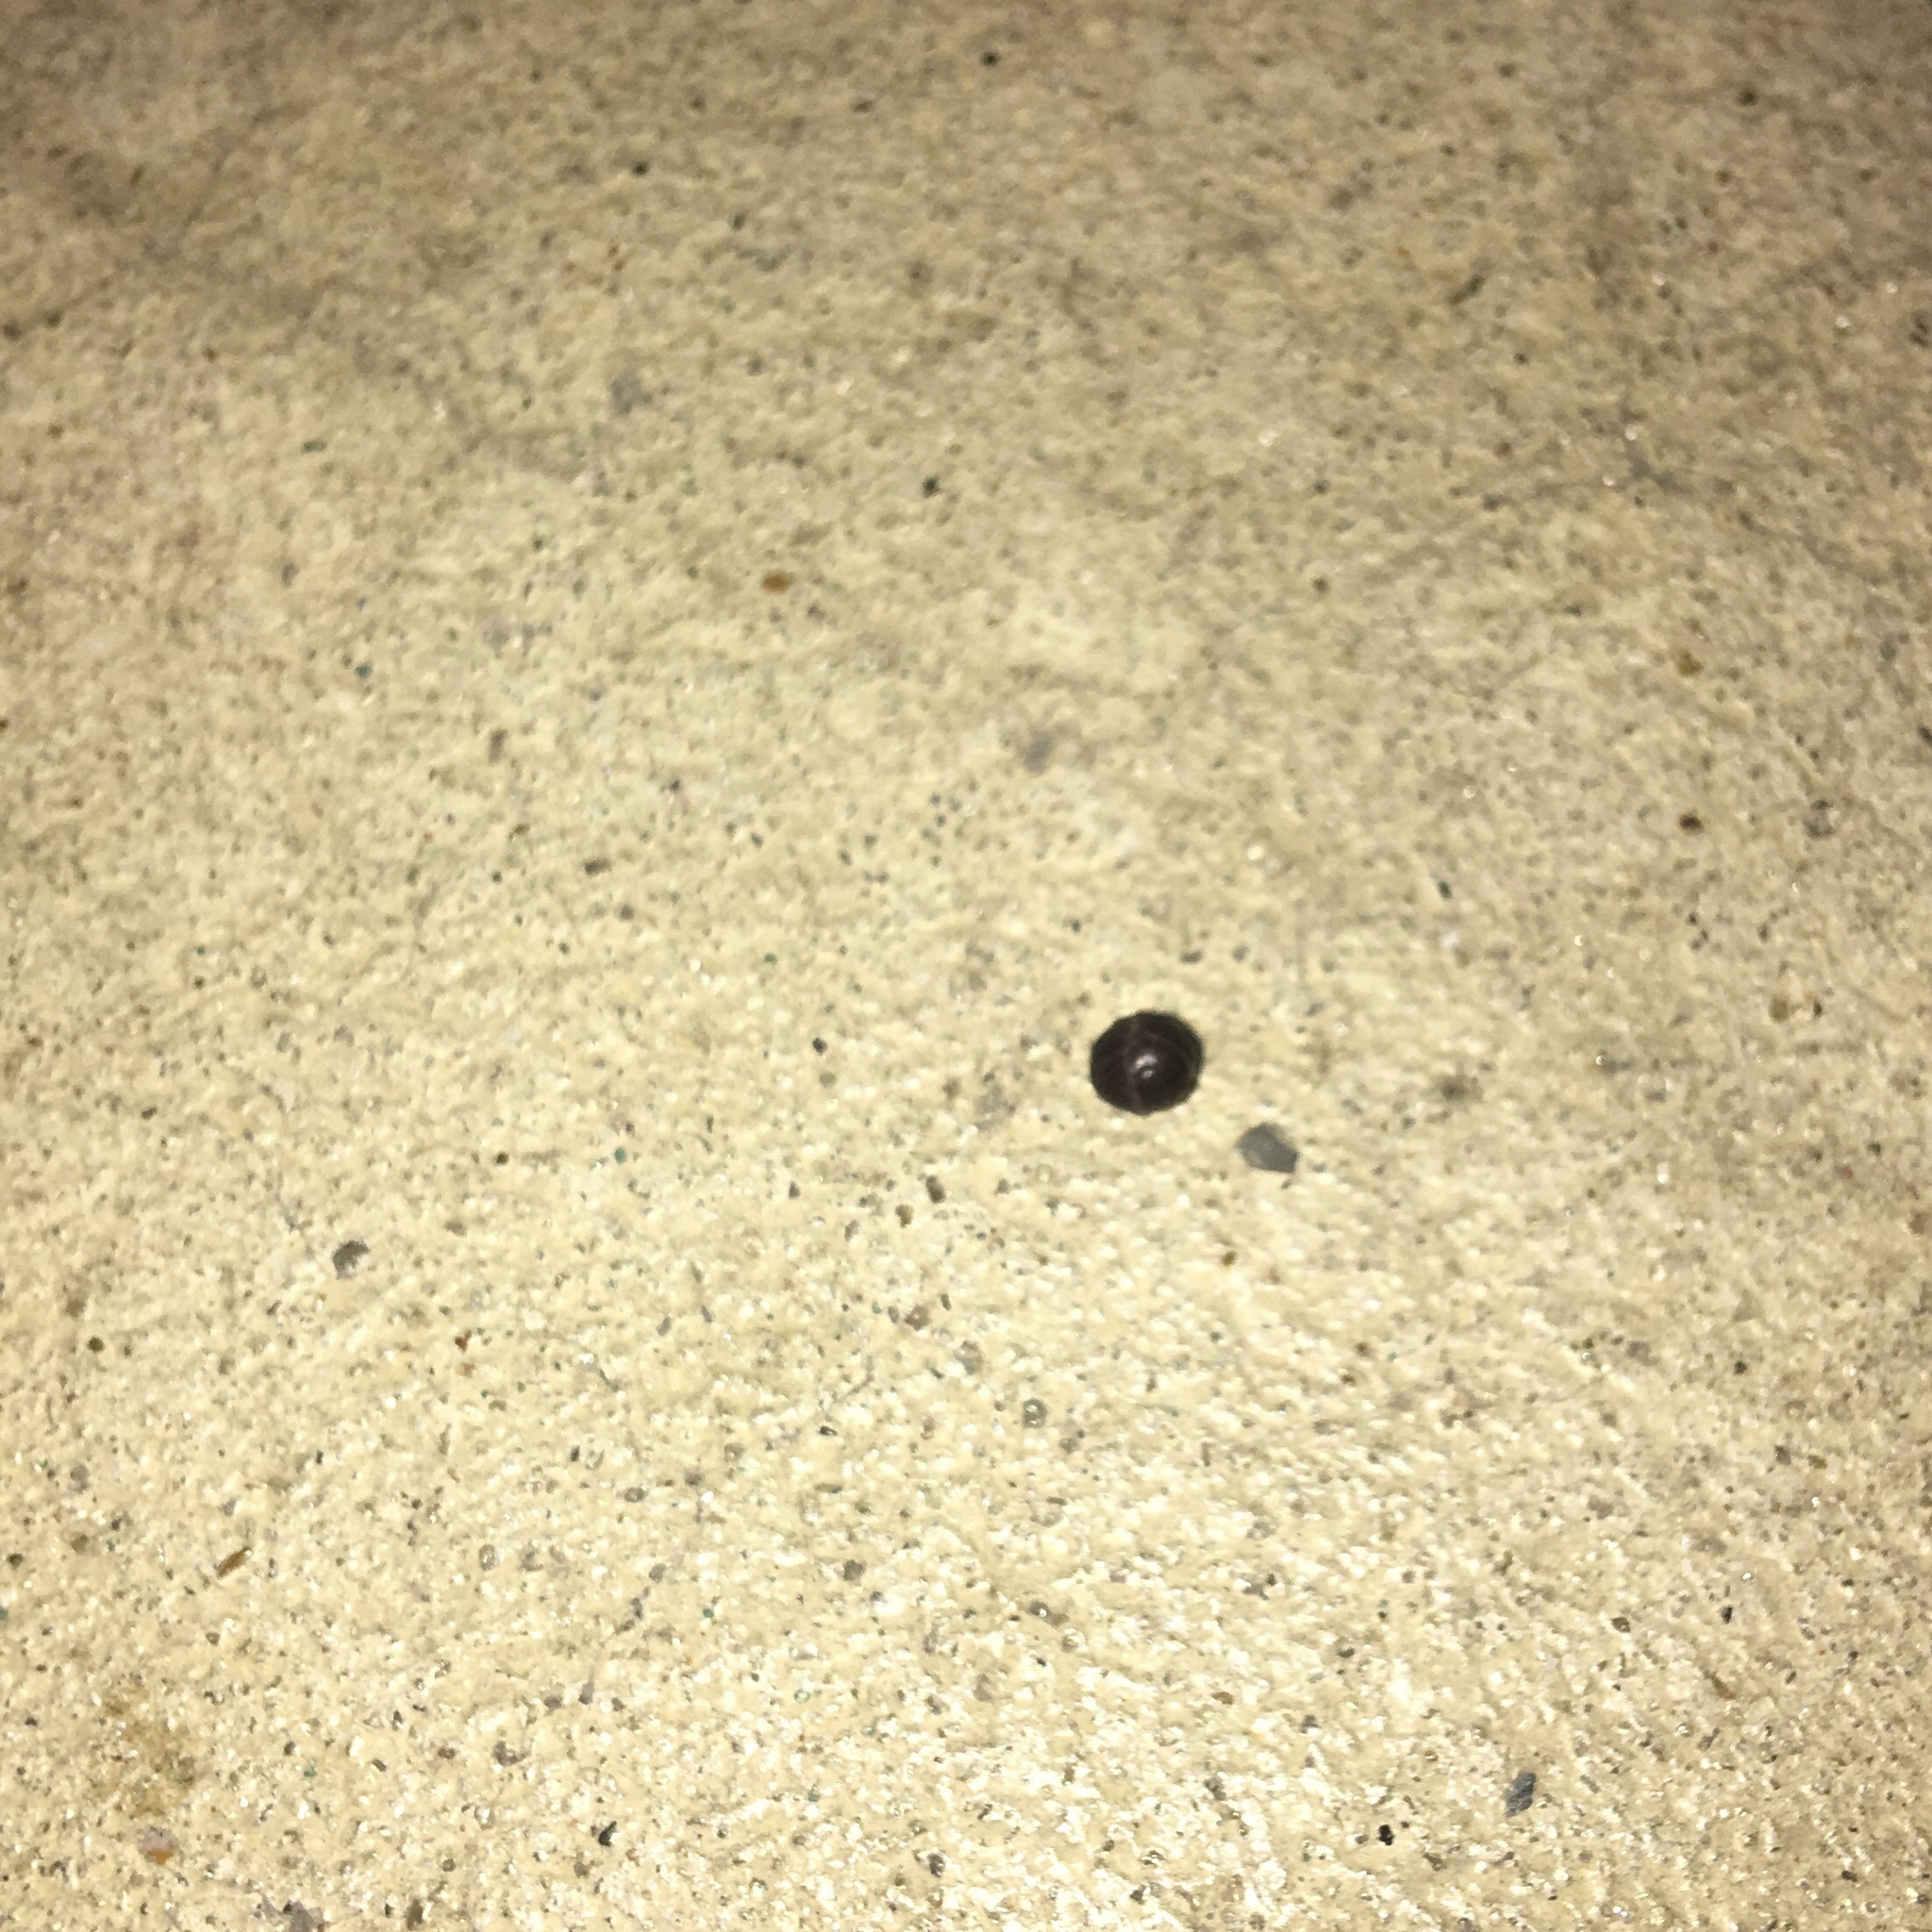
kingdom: Animalia
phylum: Arthropoda
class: Malacostraca
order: Isopoda
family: Armadillidiidae
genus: Armadillidium
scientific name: Armadillidium vulgare
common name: Common pill woodlouse
